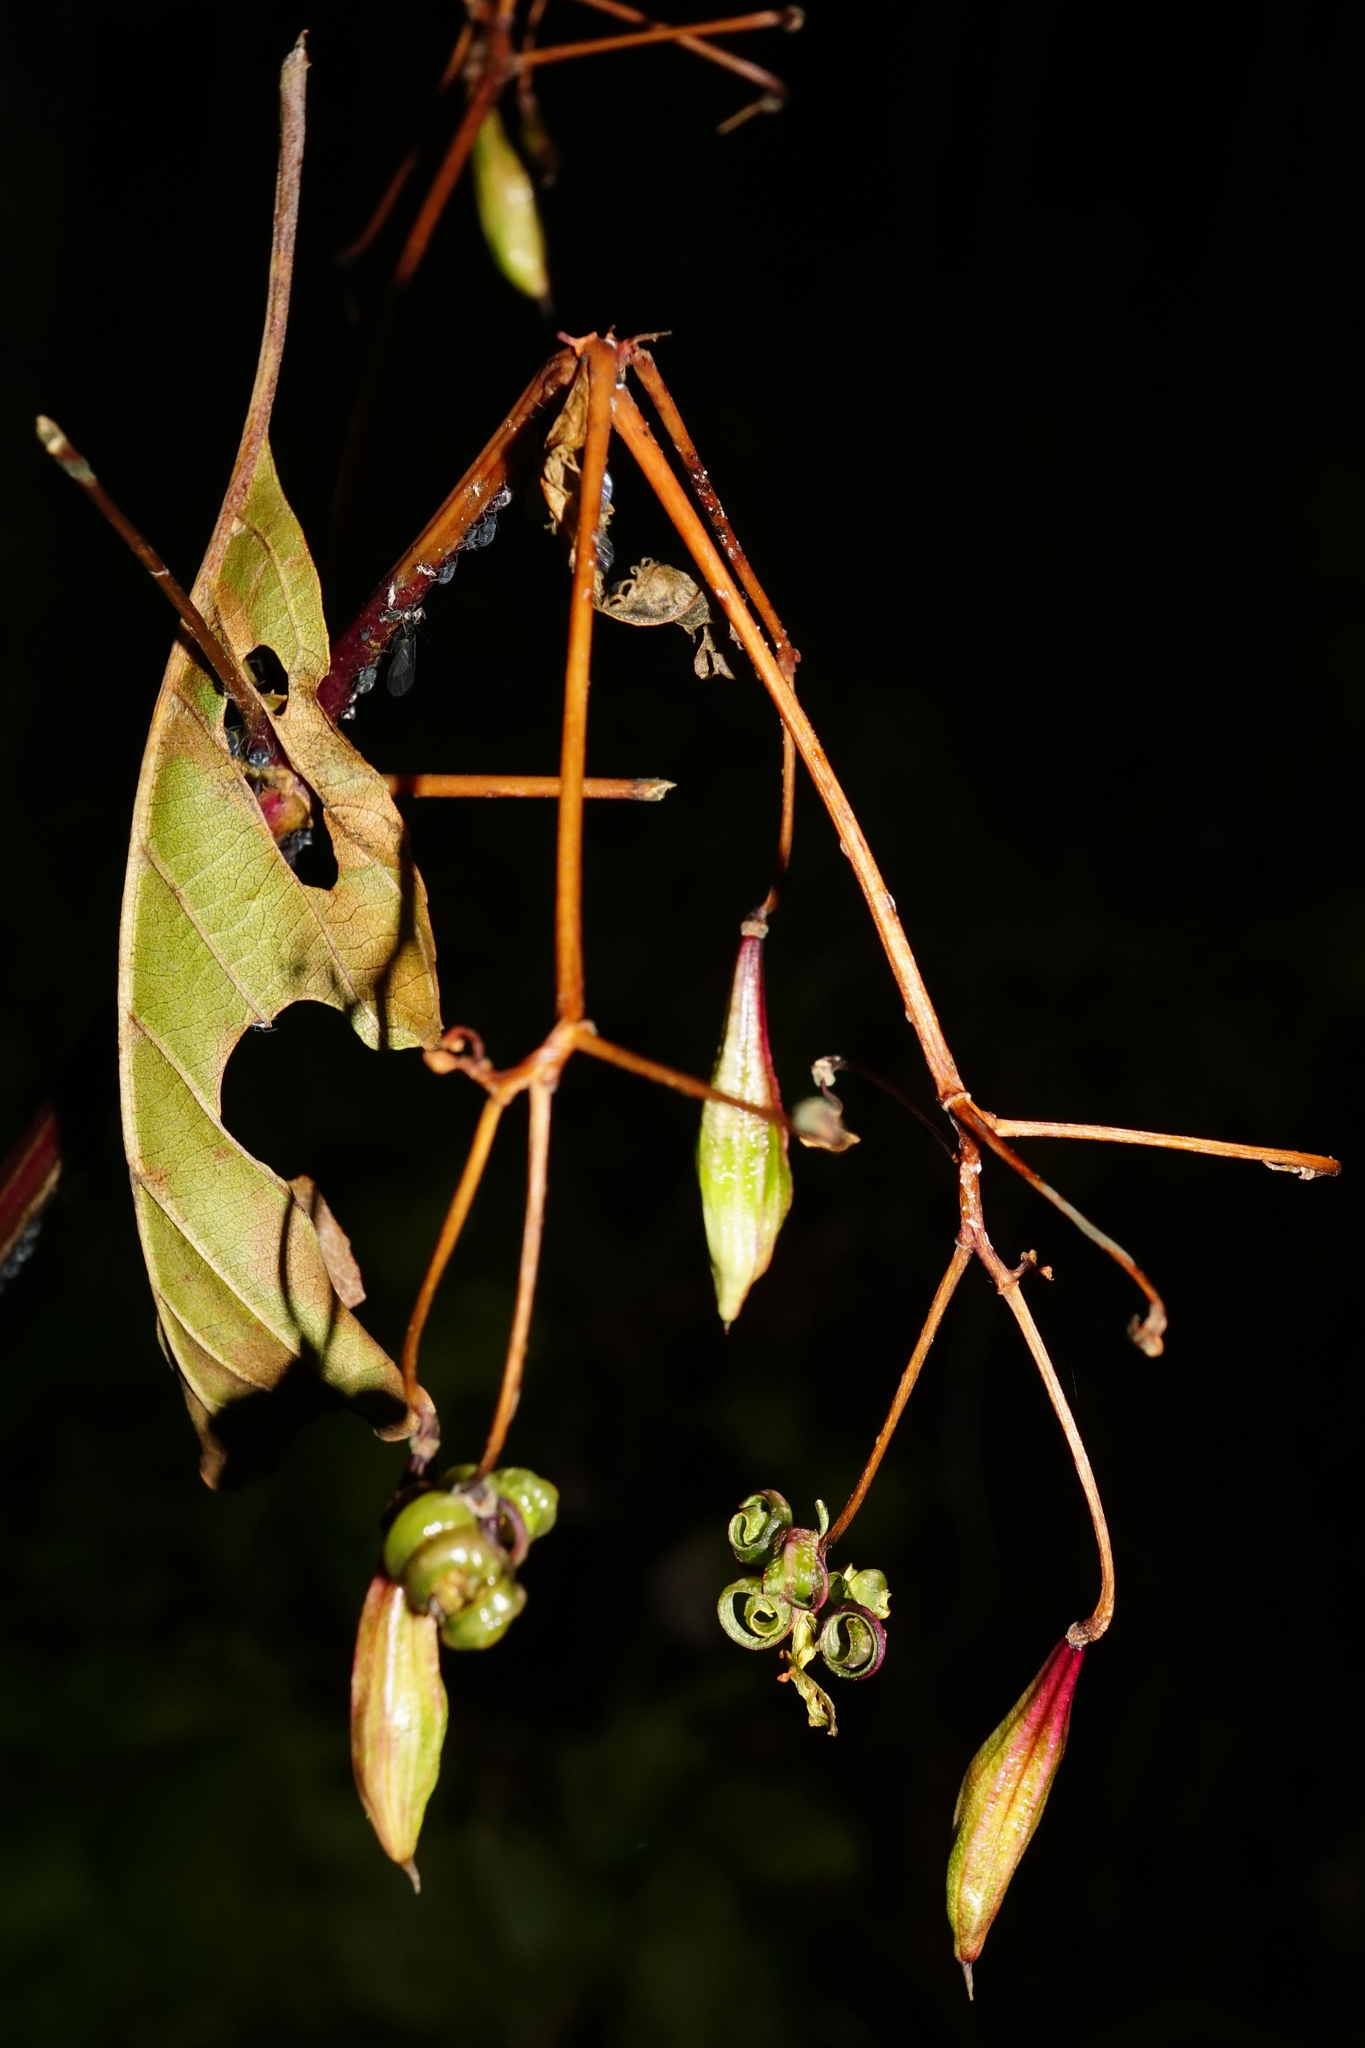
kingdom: Plantae
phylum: Tracheophyta
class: Magnoliopsida
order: Ericales
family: Balsaminaceae
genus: Impatiens
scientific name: Impatiens glandulifera
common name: Himalayan balsam
